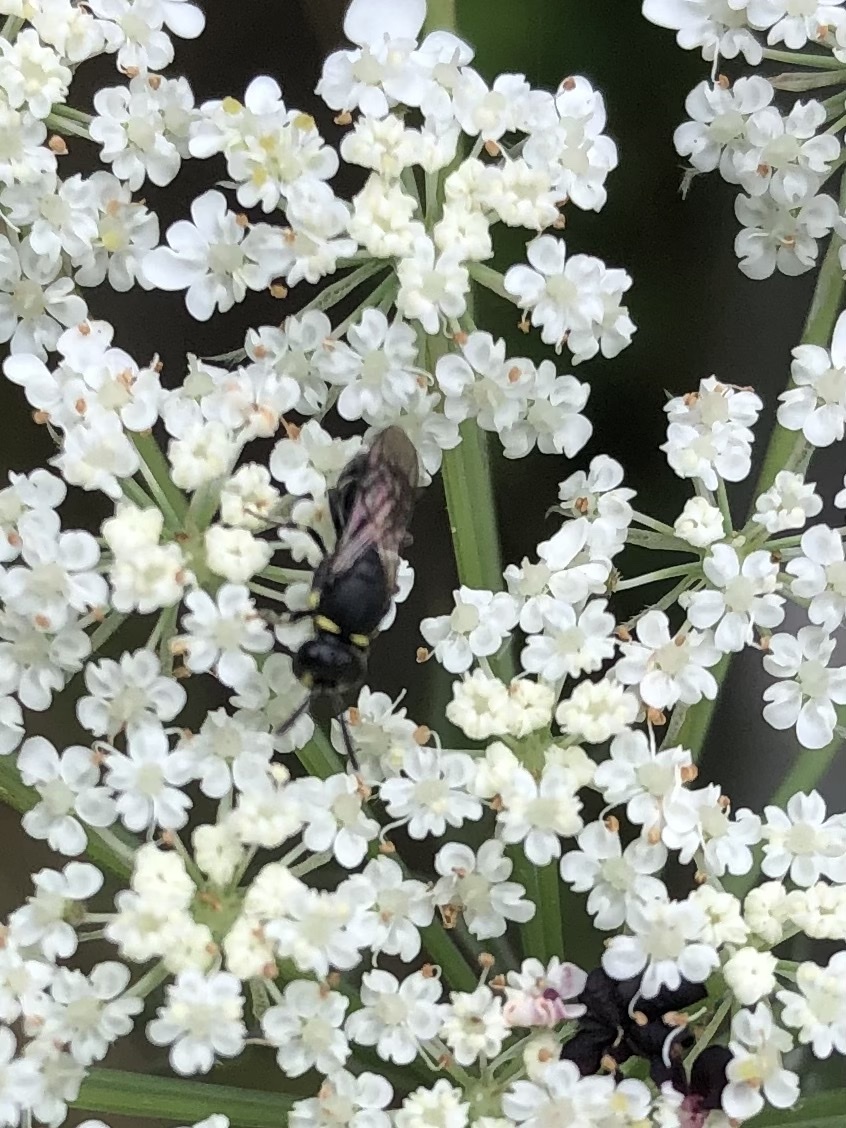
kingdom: Animalia
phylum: Arthropoda
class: Insecta
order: Hymenoptera
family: Colletidae
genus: Hylaeus
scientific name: Hylaeus modestus
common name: Yellow-faced bee
